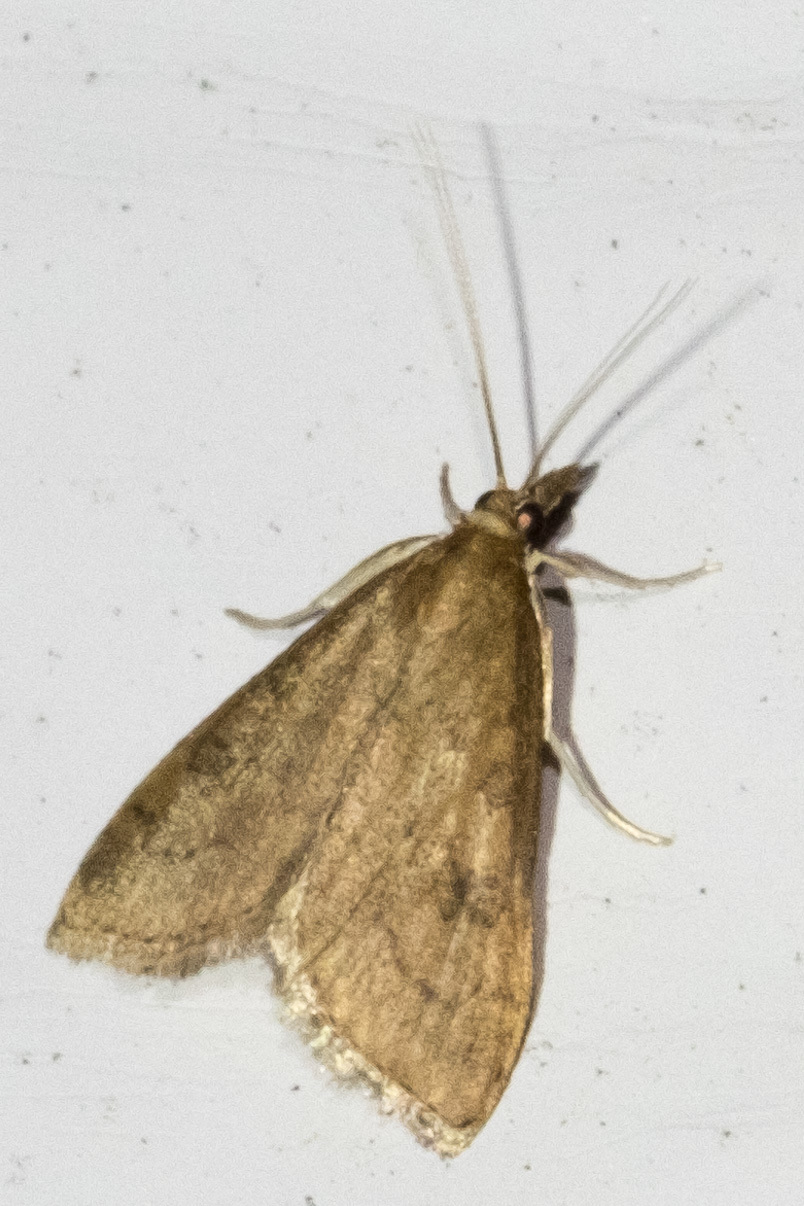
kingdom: Animalia
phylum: Arthropoda
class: Insecta
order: Lepidoptera
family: Crambidae
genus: Udea
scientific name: Udea rubigalis
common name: Celery leaftier moth
